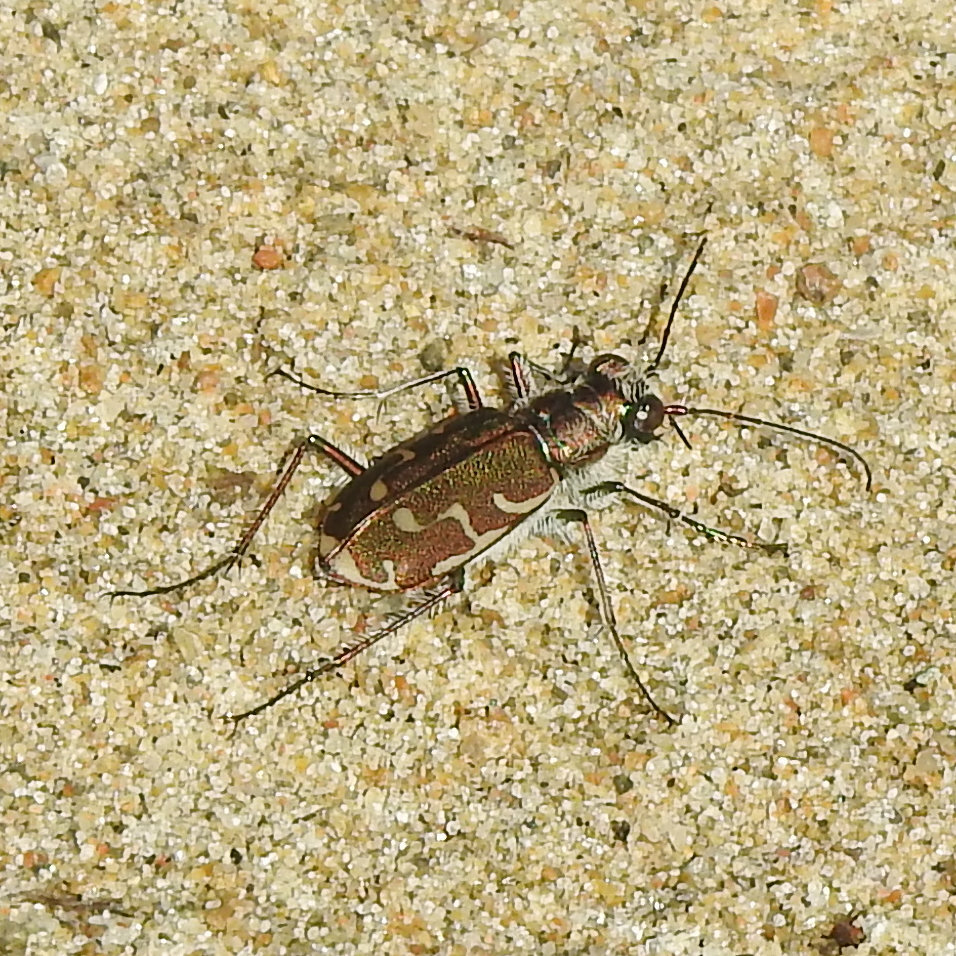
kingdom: Animalia
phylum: Arthropoda
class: Insecta
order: Coleoptera
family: Carabidae
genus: Cicindela
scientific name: Cicindela repanda
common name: Bronzed tiger beetle
